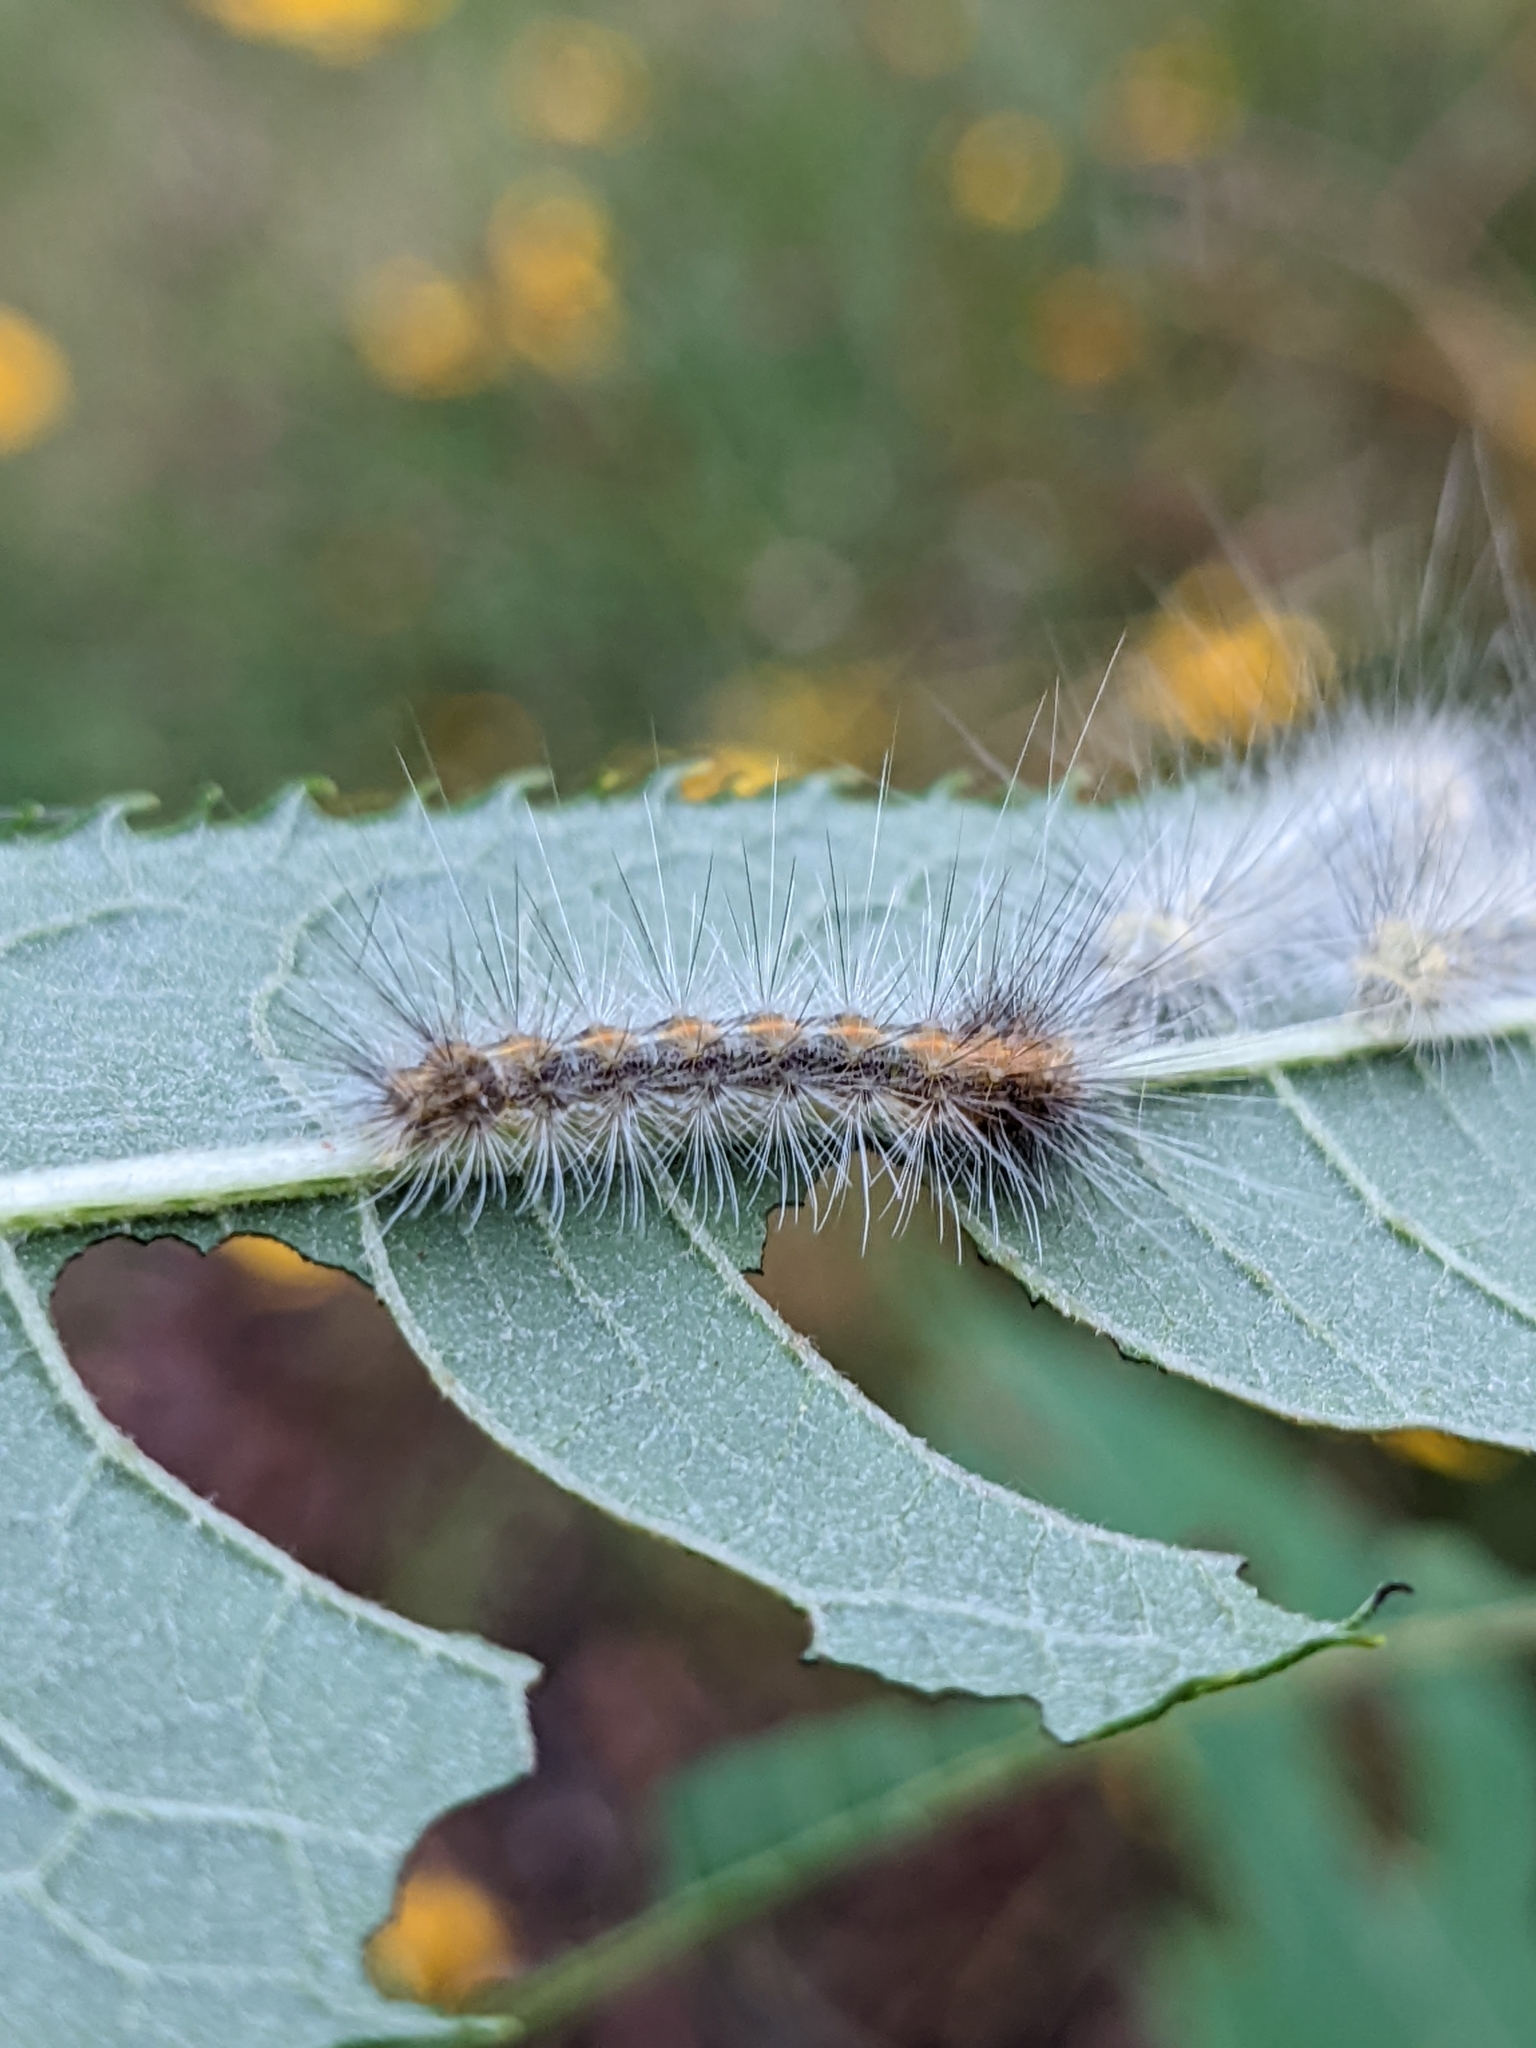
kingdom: Animalia
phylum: Arthropoda
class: Insecta
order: Lepidoptera
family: Erebidae
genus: Spilosoma
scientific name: Spilosoma virginica
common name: Virginia tiger moth
